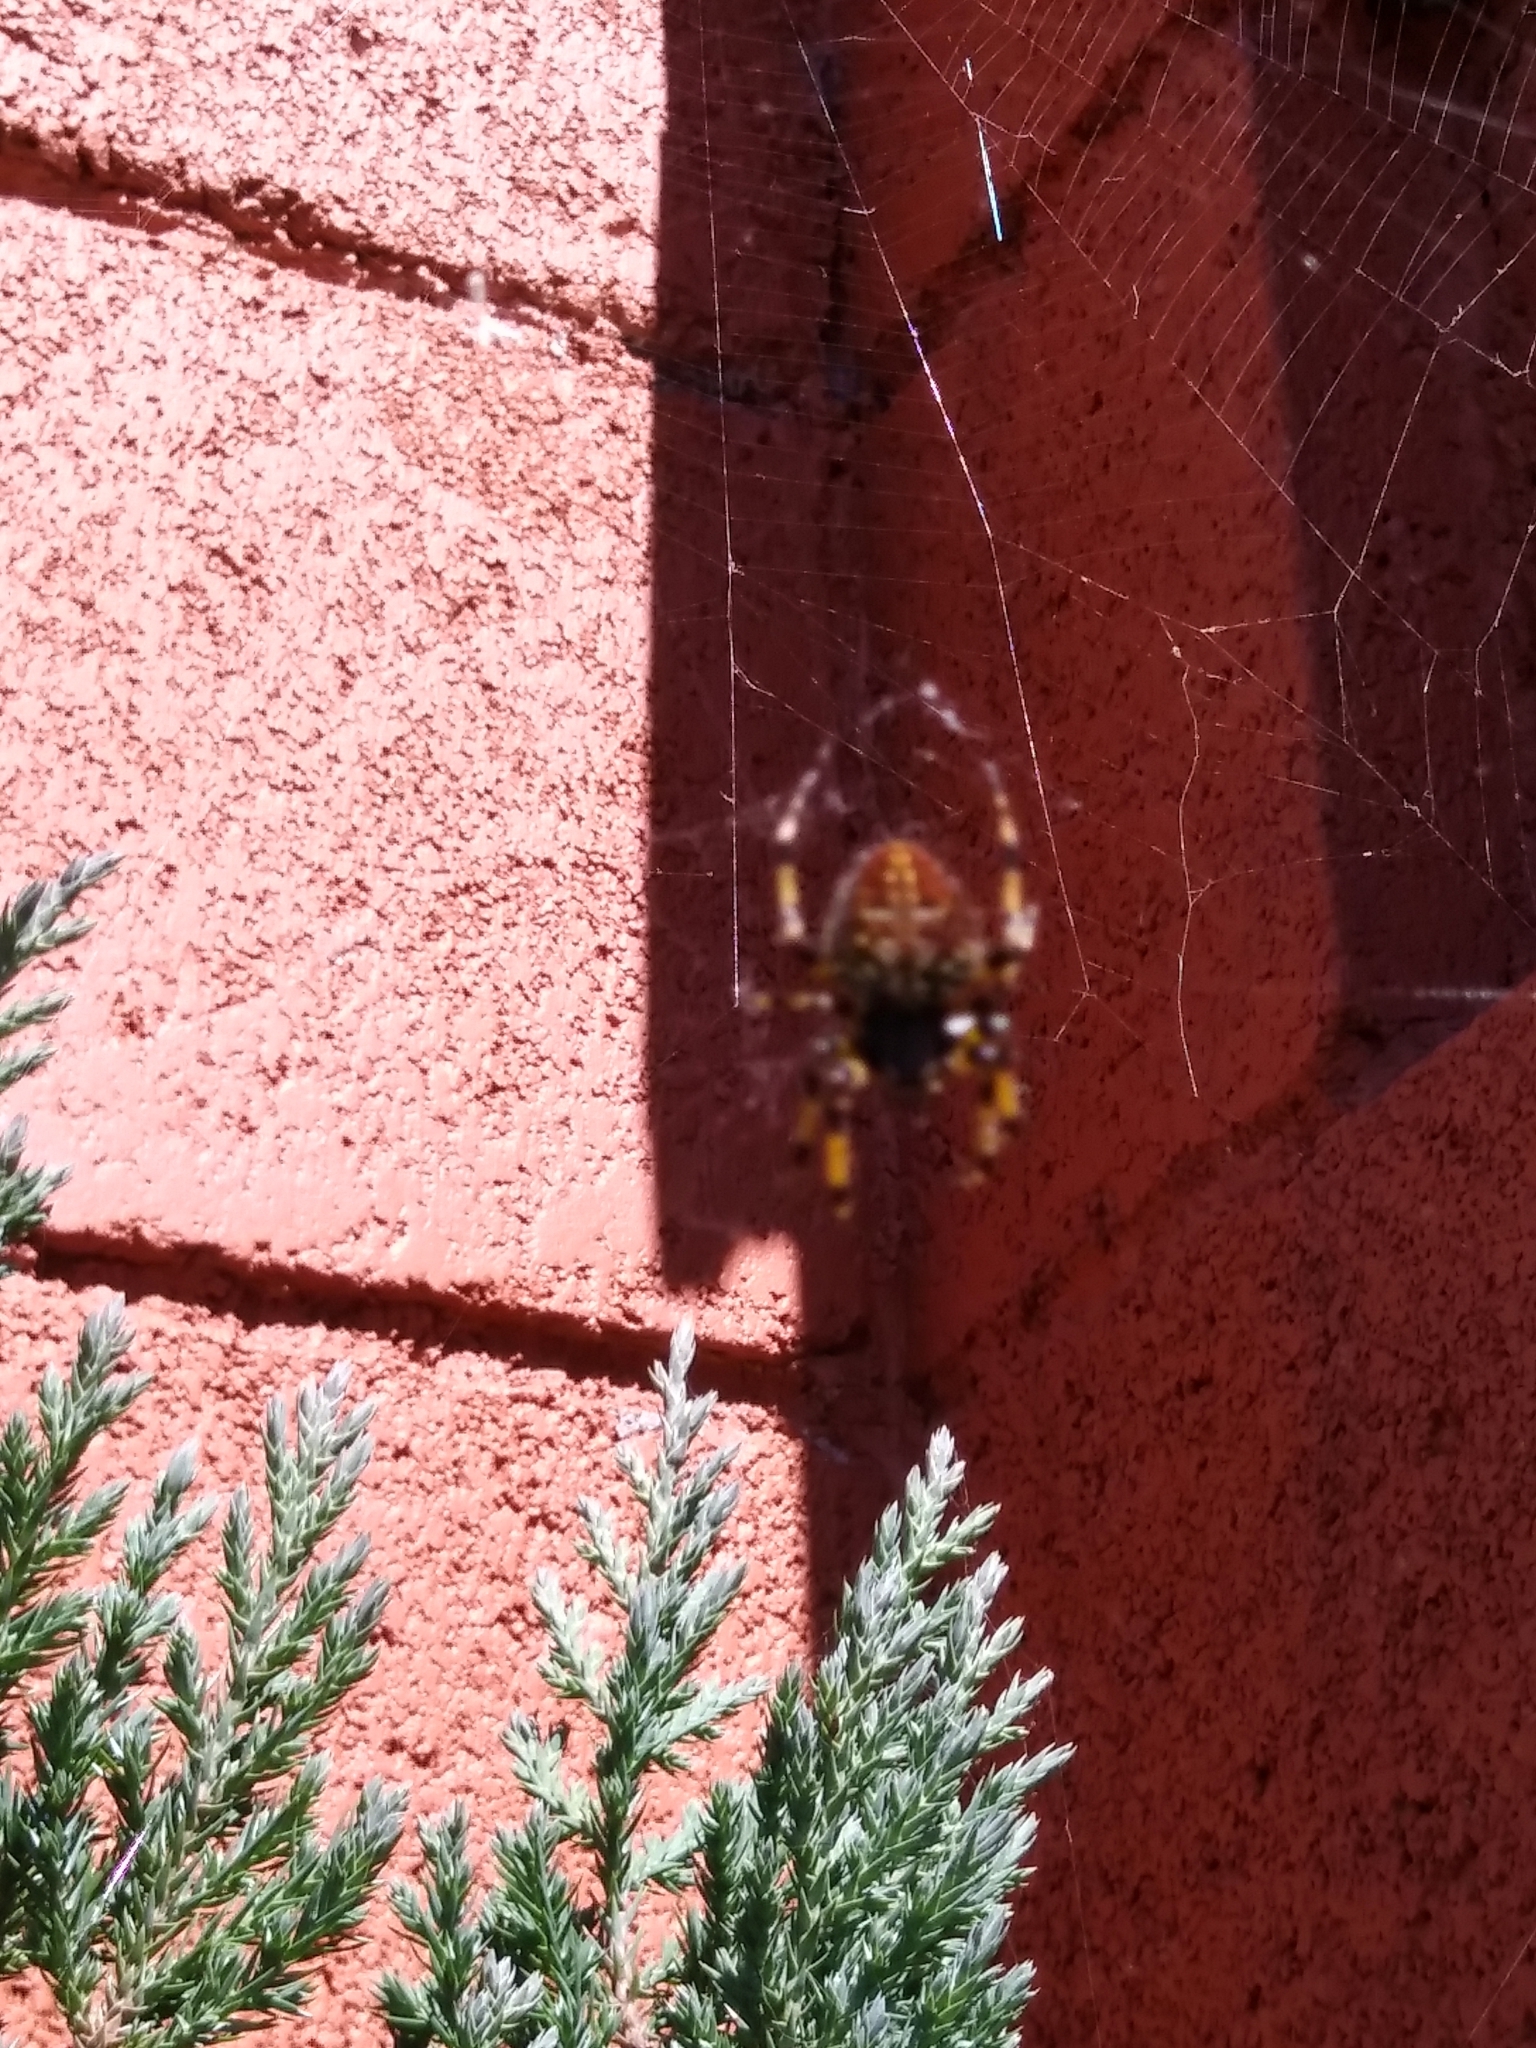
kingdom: Animalia
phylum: Arthropoda
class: Arachnida
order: Araneae
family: Araneidae
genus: Neoscona
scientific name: Neoscona orizabensis
